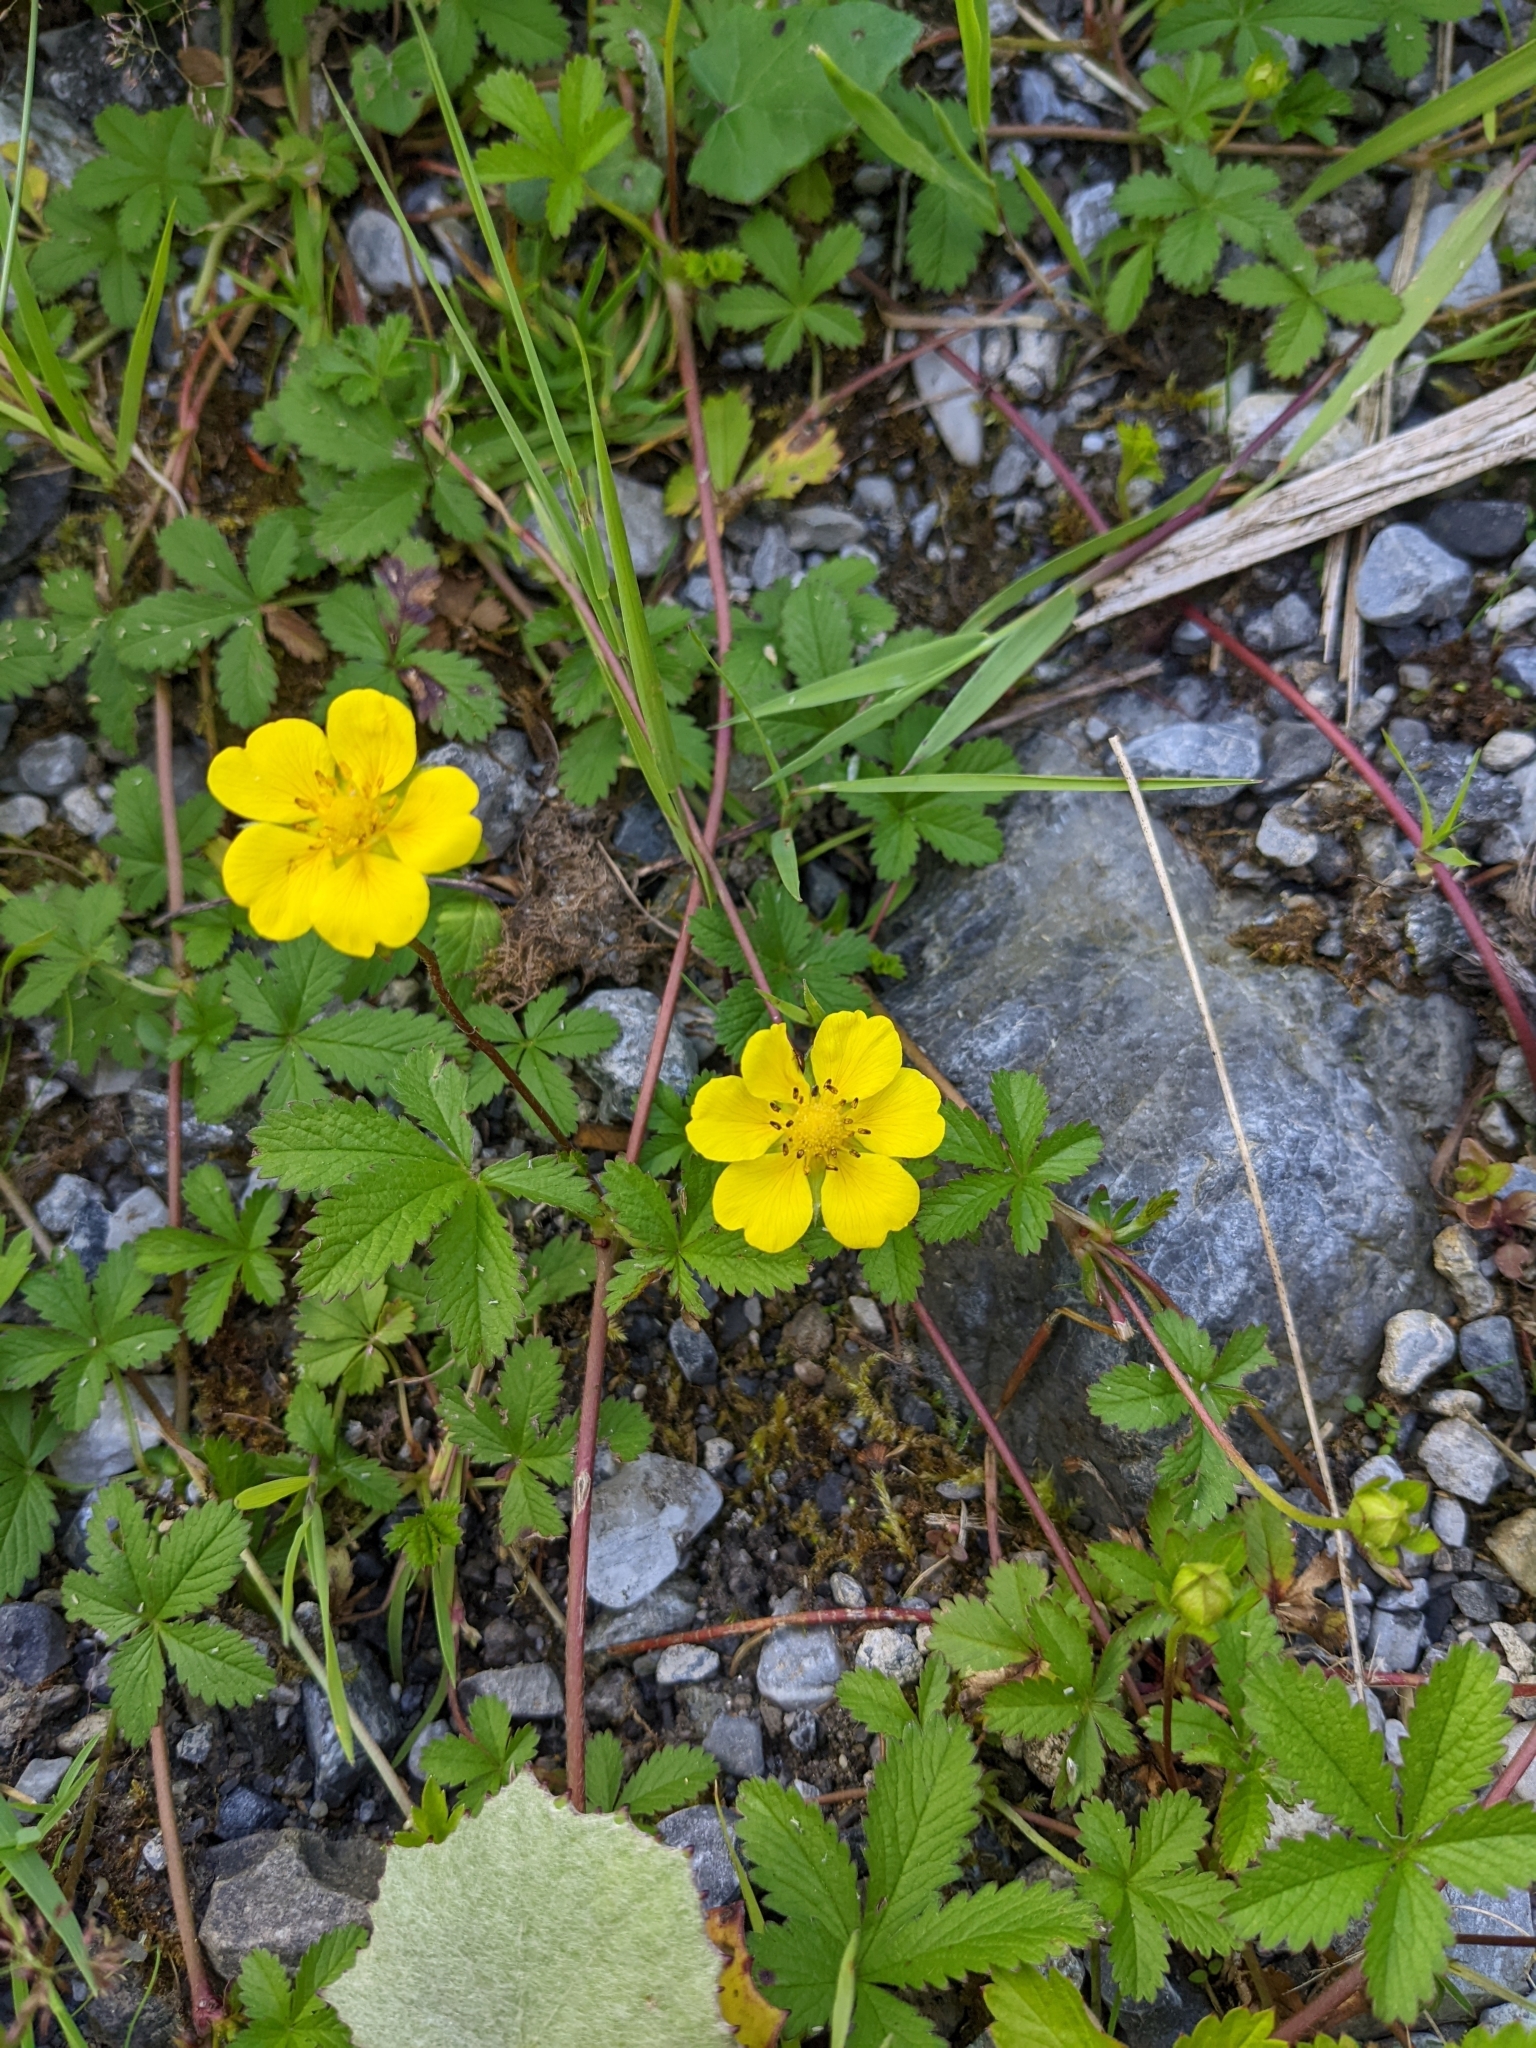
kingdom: Plantae
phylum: Tracheophyta
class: Magnoliopsida
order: Rosales
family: Rosaceae
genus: Potentilla
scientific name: Potentilla reptans
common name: Creeping cinquefoil
